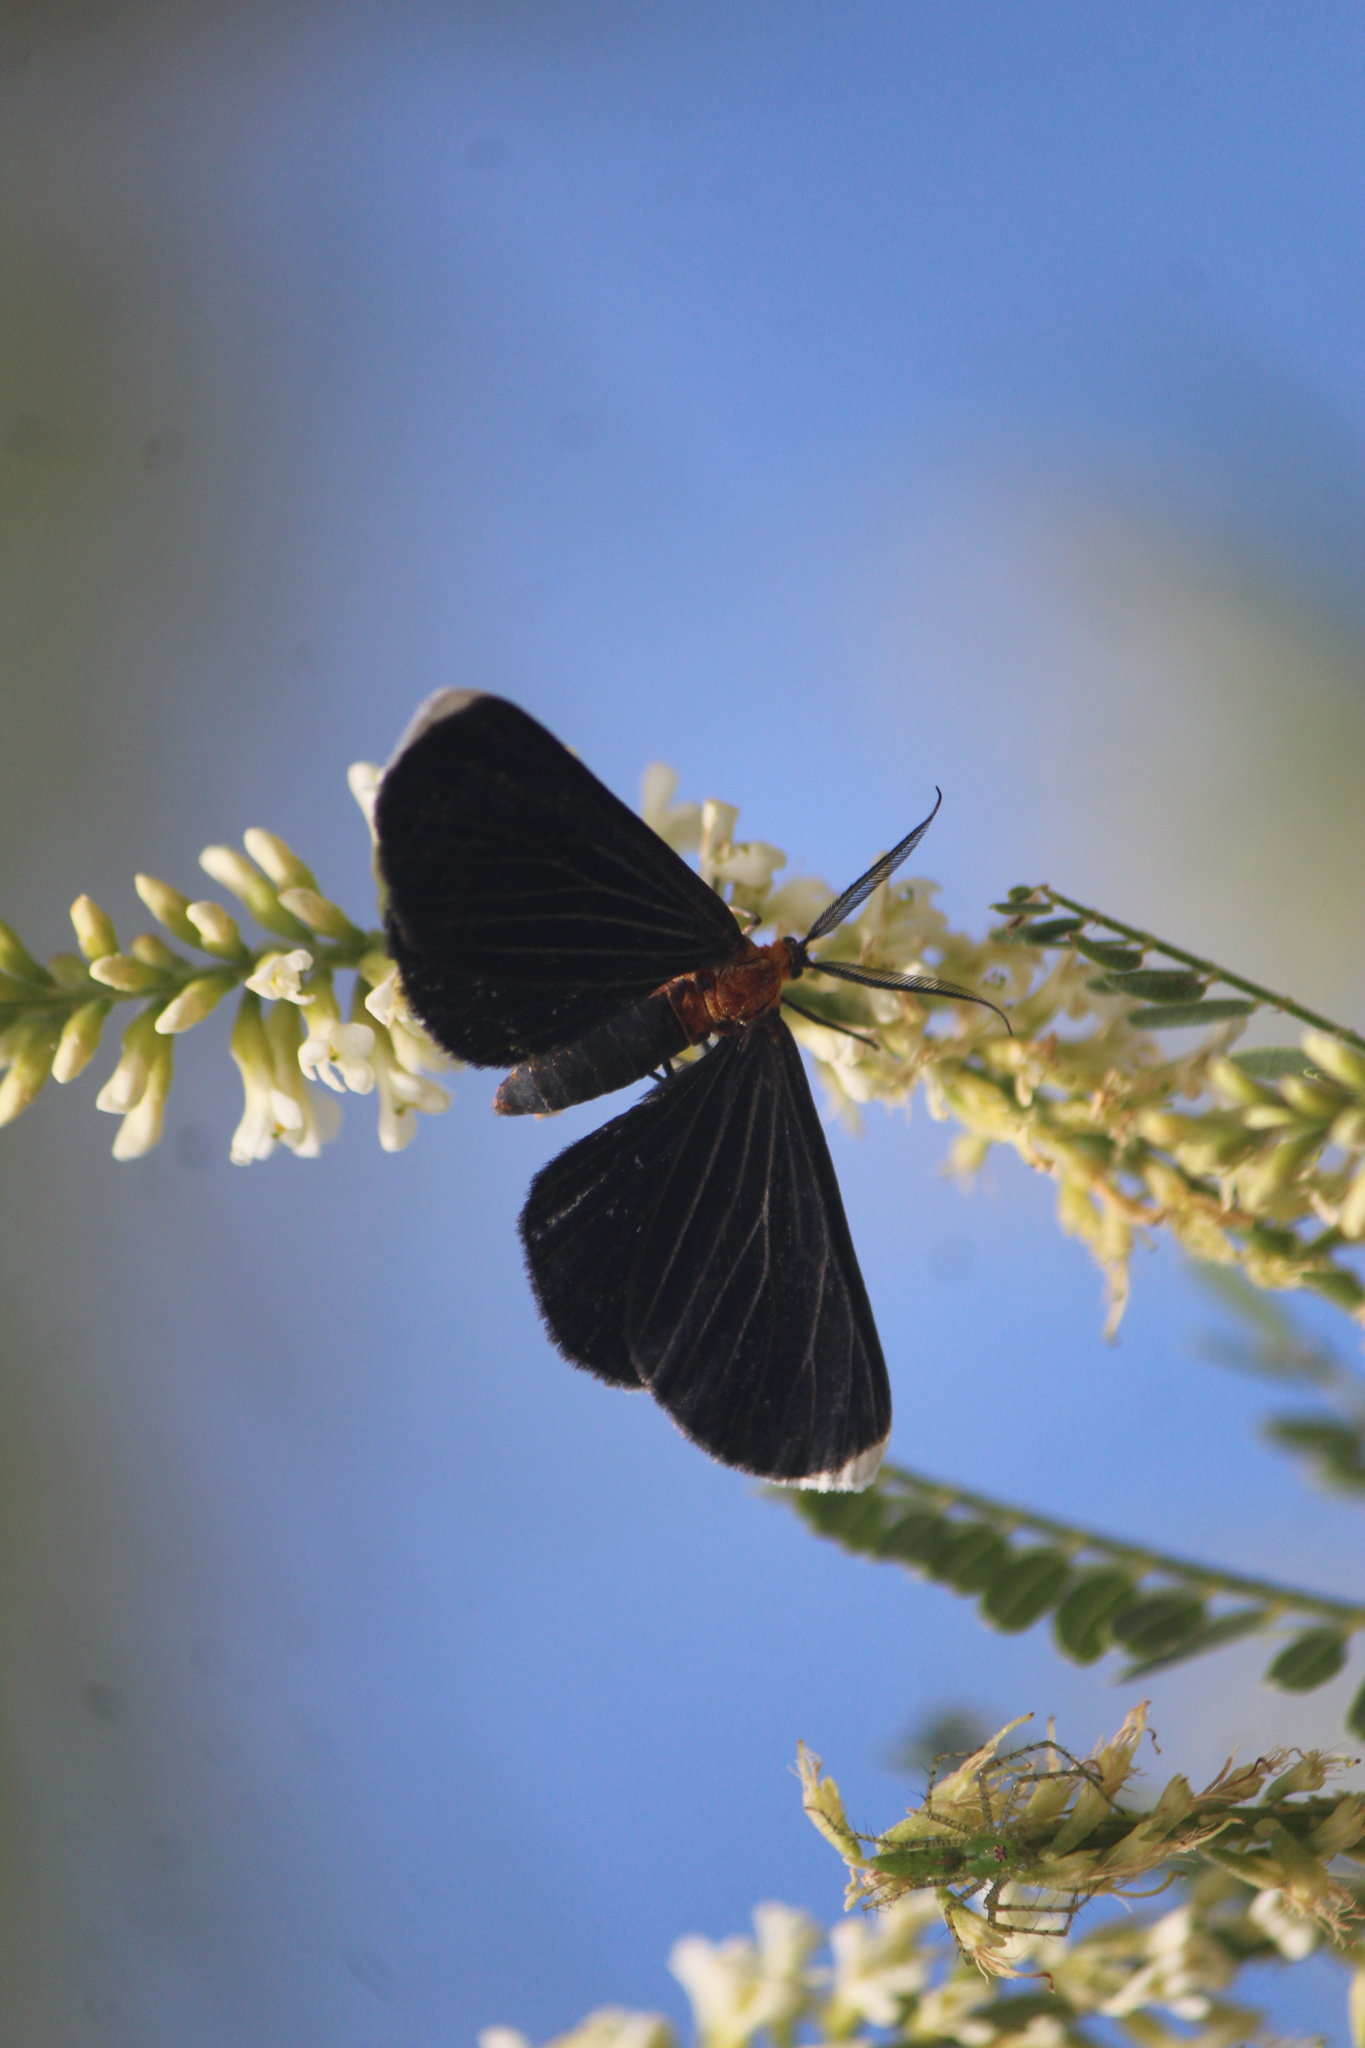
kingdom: Animalia
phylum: Arthropoda
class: Insecta
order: Lepidoptera
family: Geometridae
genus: Melanchroia
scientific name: Melanchroia chephise
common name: White-tipped black
